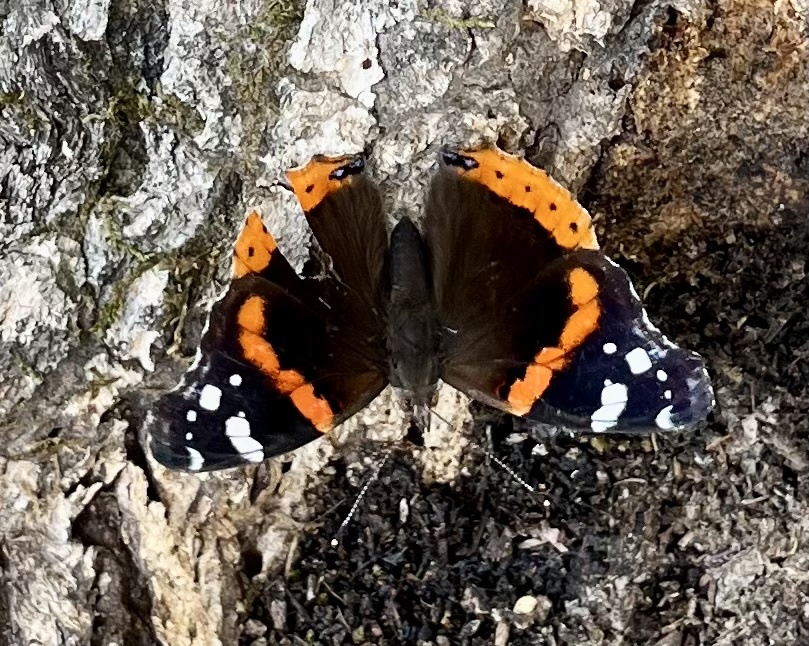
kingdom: Animalia
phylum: Arthropoda
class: Insecta
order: Lepidoptera
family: Nymphalidae
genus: Vanessa
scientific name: Vanessa atalanta
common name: Red admiral
